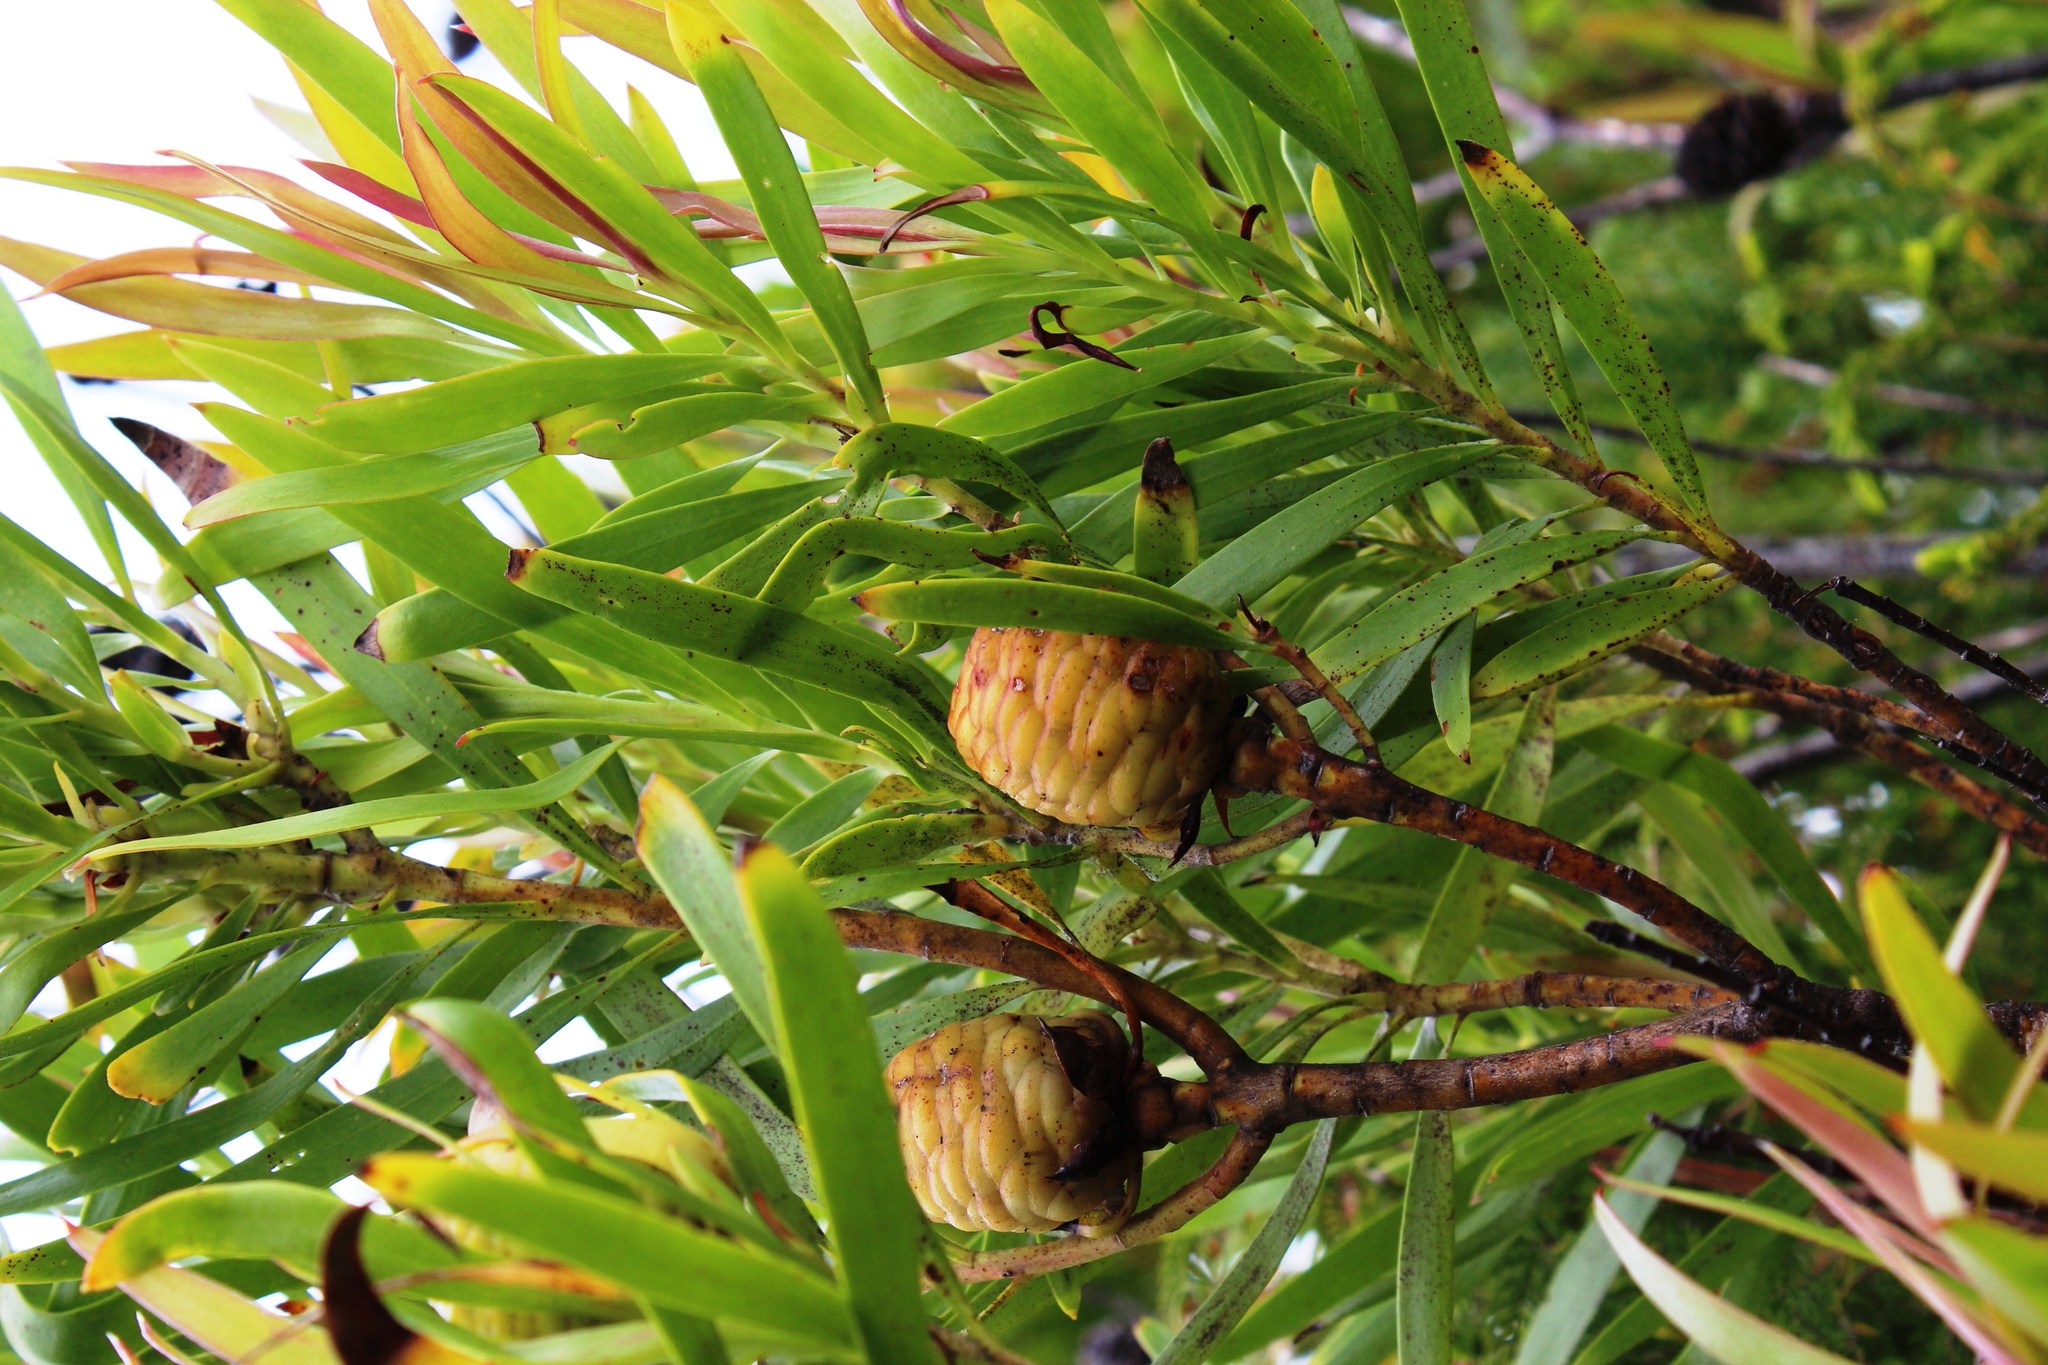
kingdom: Plantae
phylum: Tracheophyta
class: Magnoliopsida
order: Proteales
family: Proteaceae
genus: Leucadendron
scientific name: Leucadendron eucalyptifolium
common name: Gum-leaved conebush
